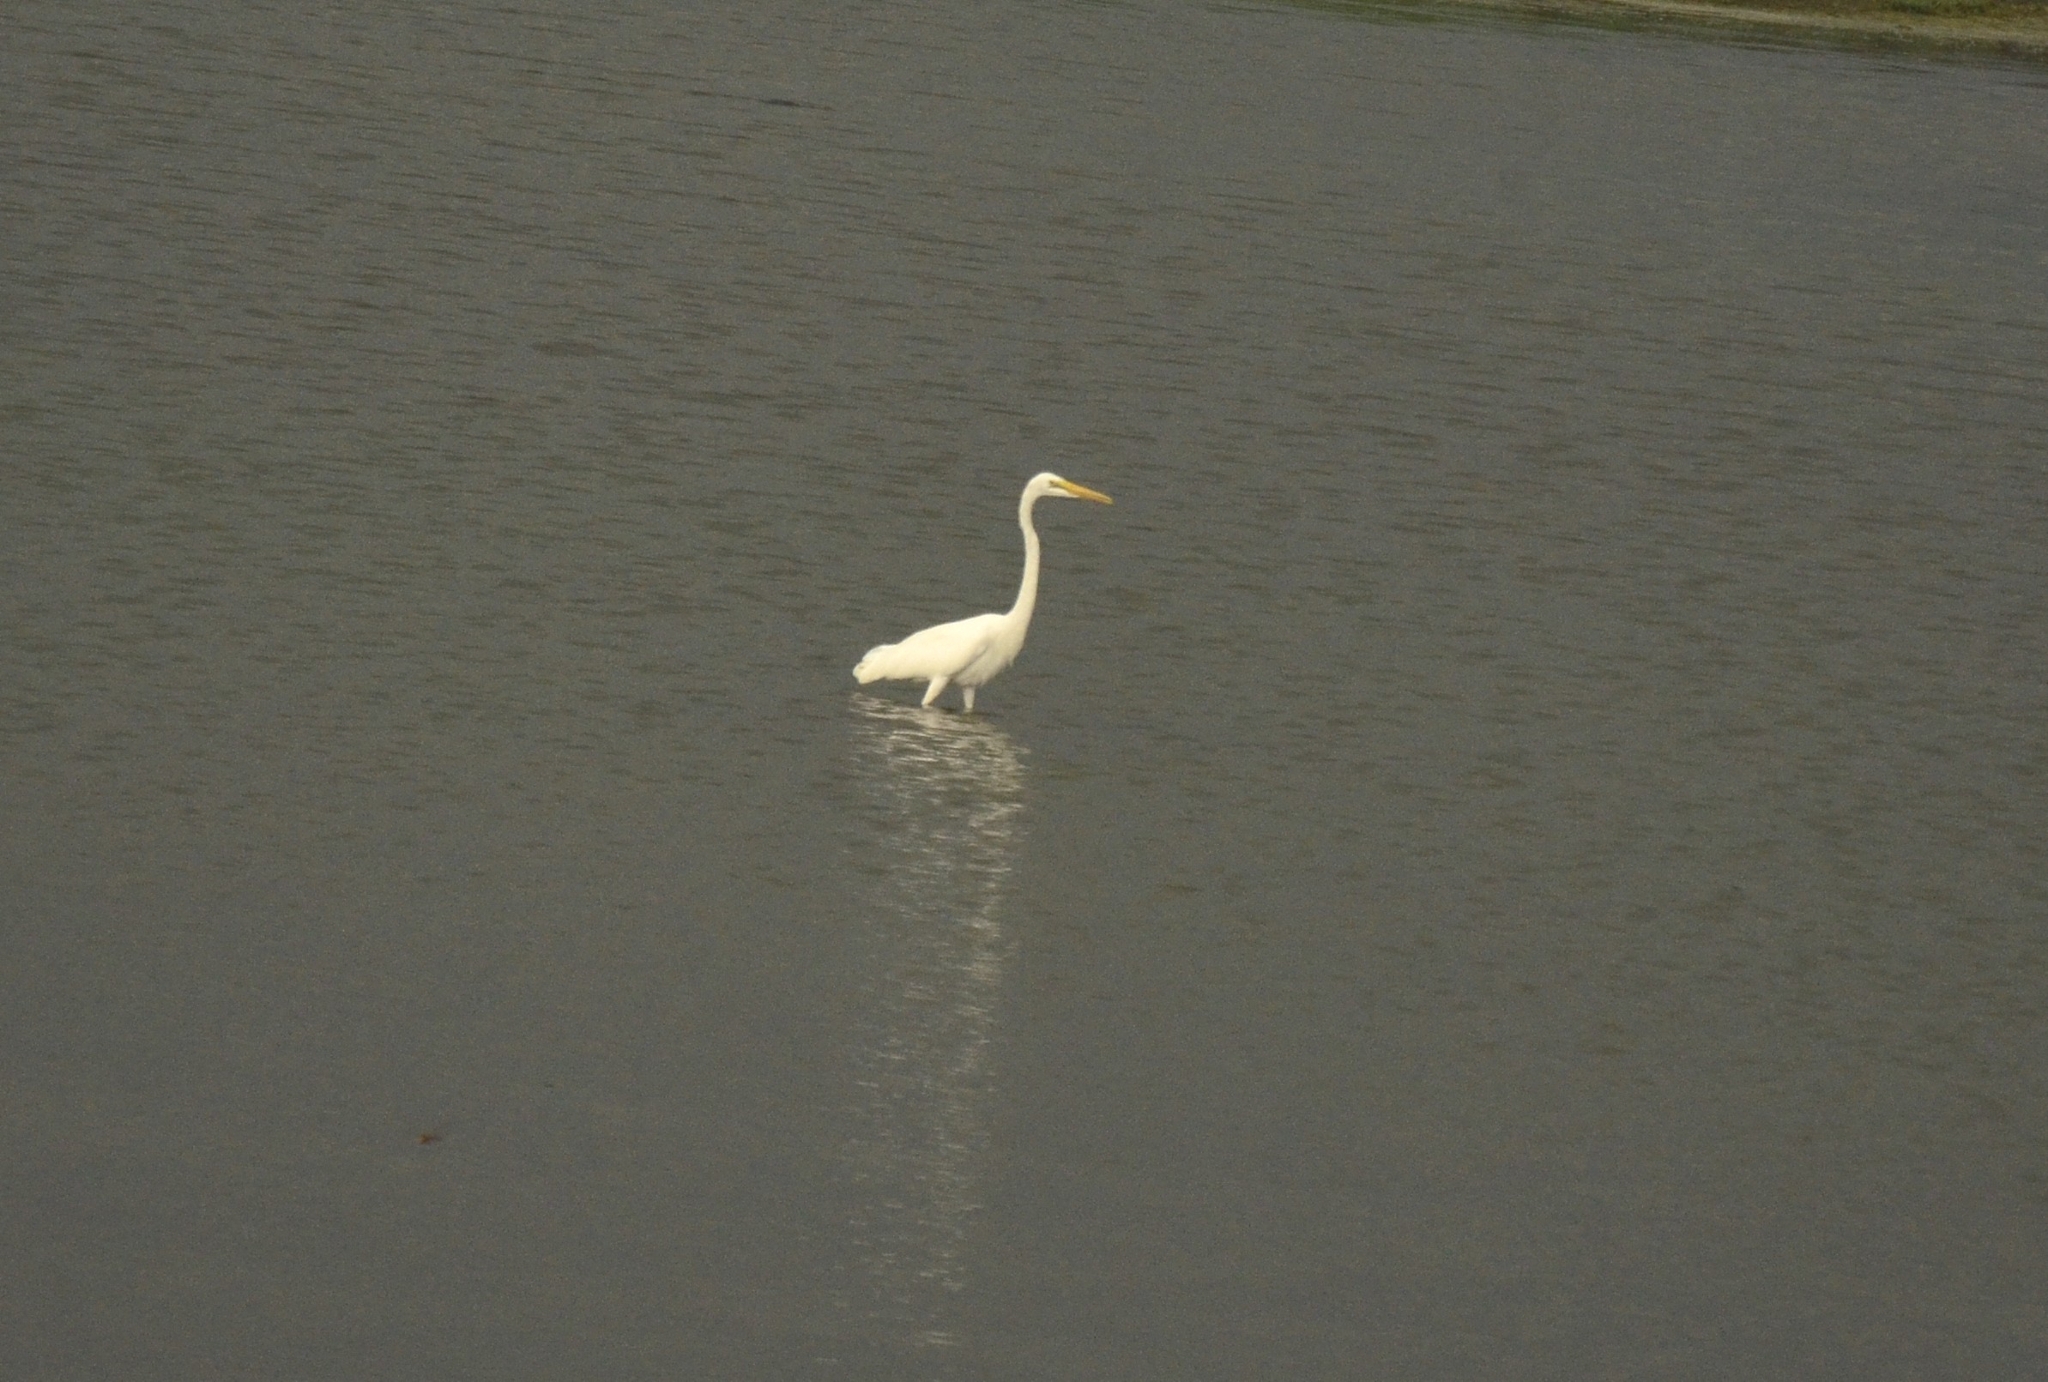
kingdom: Animalia
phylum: Chordata
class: Aves
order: Pelecaniformes
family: Ardeidae
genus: Ardea
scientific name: Ardea alba
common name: Great egret
